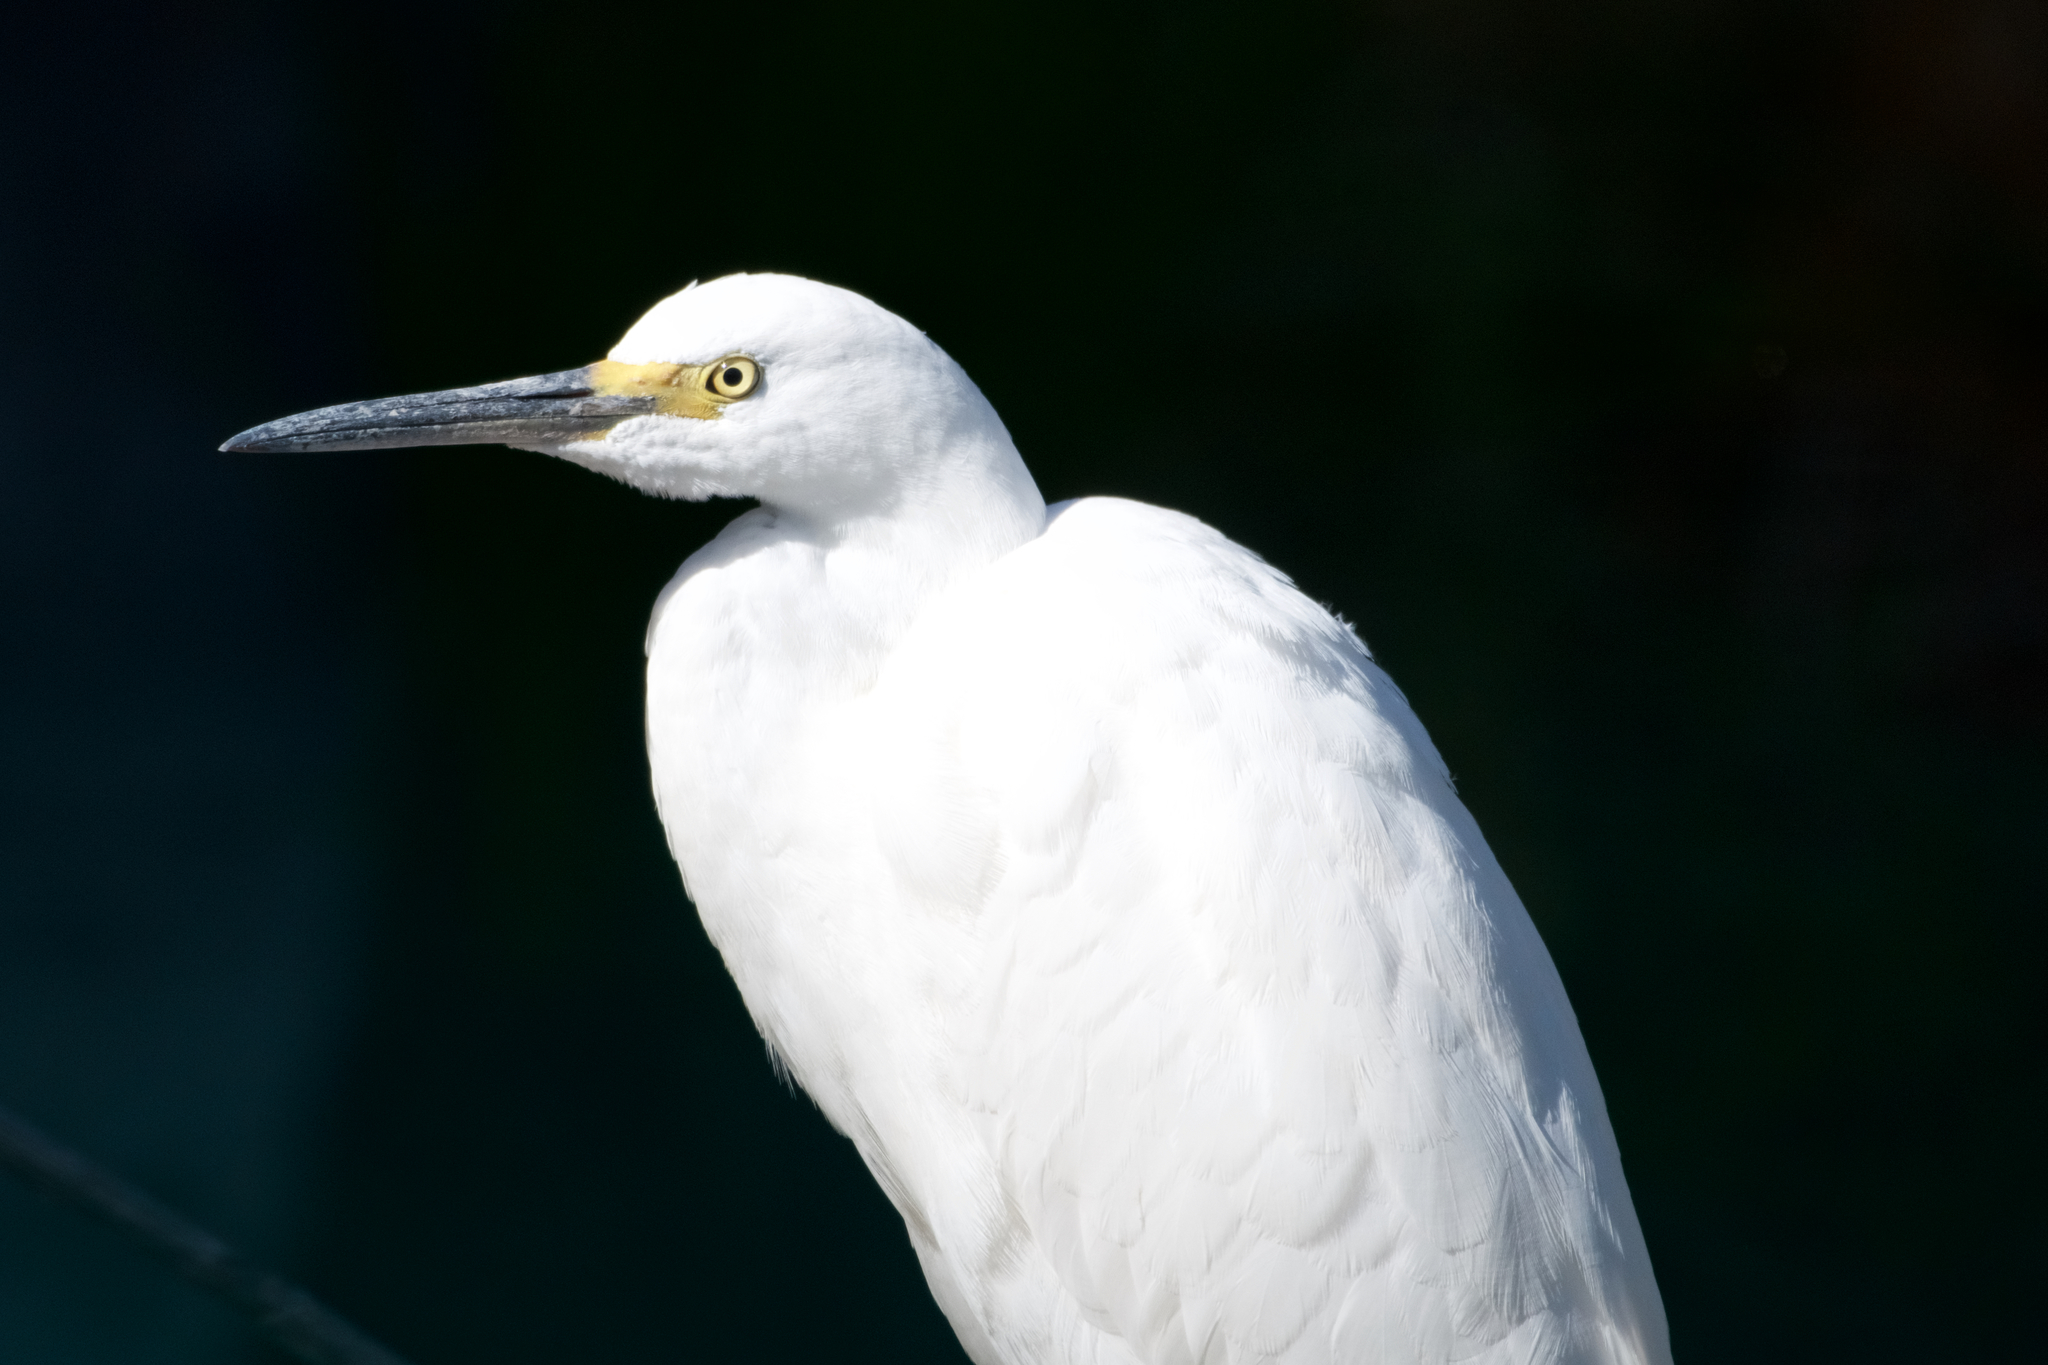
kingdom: Animalia
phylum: Chordata
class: Aves
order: Pelecaniformes
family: Ardeidae
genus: Egretta
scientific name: Egretta thula
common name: Snowy egret
